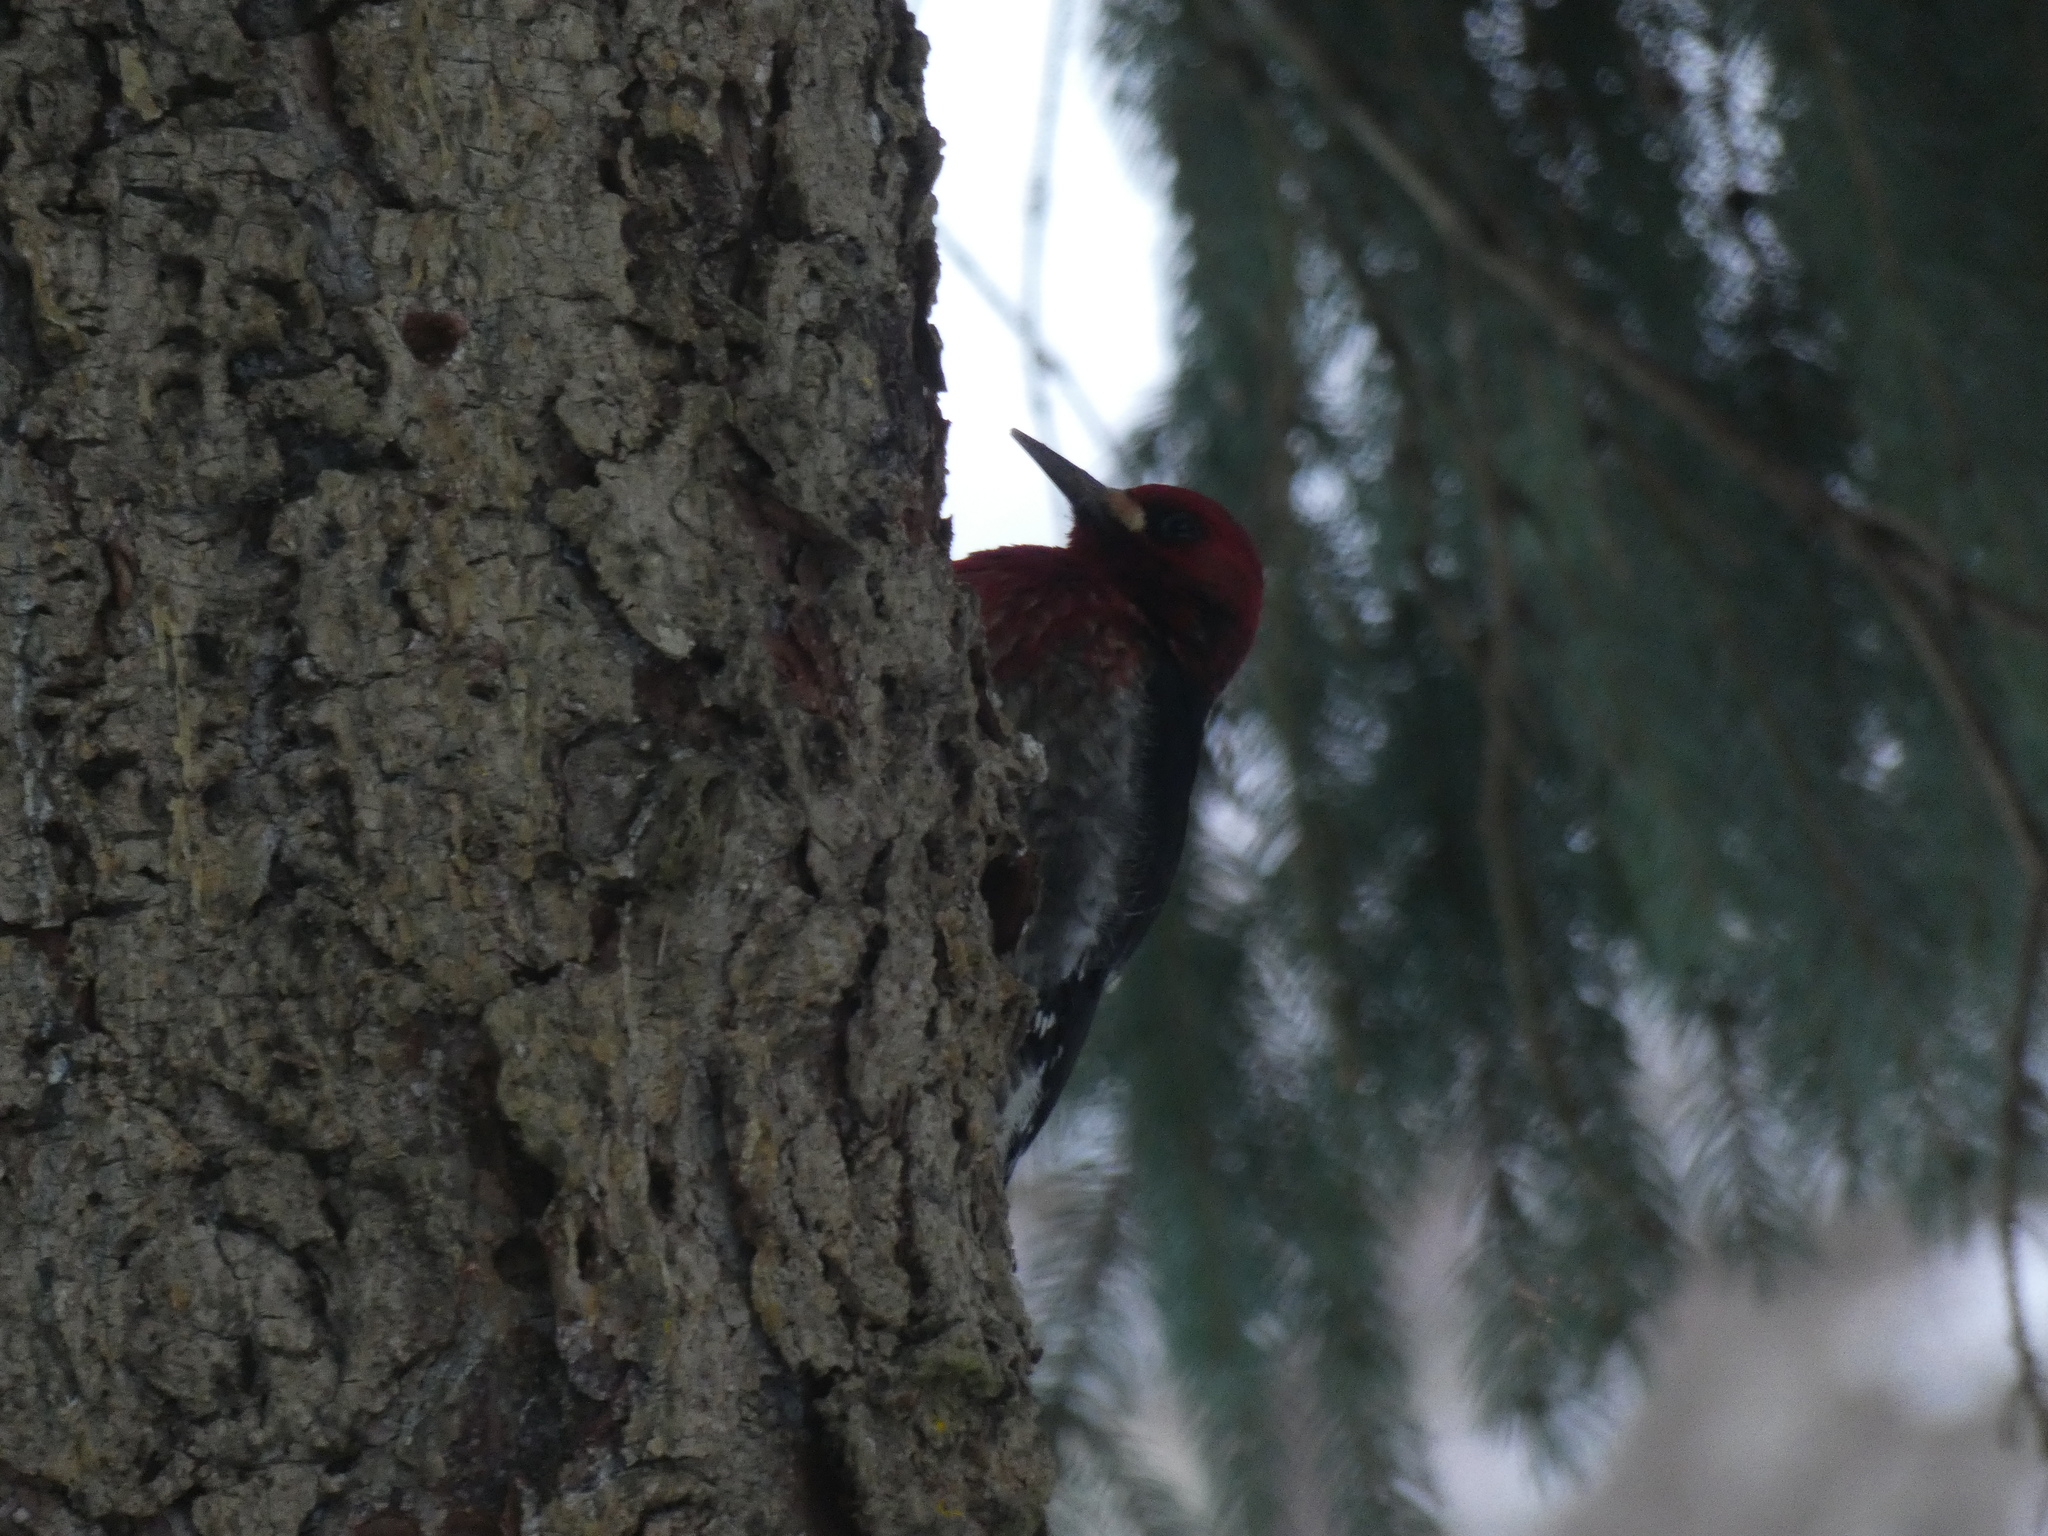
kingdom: Animalia
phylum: Chordata
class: Aves
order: Piciformes
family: Picidae
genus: Sphyrapicus
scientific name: Sphyrapicus ruber
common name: Red-breasted sapsucker
